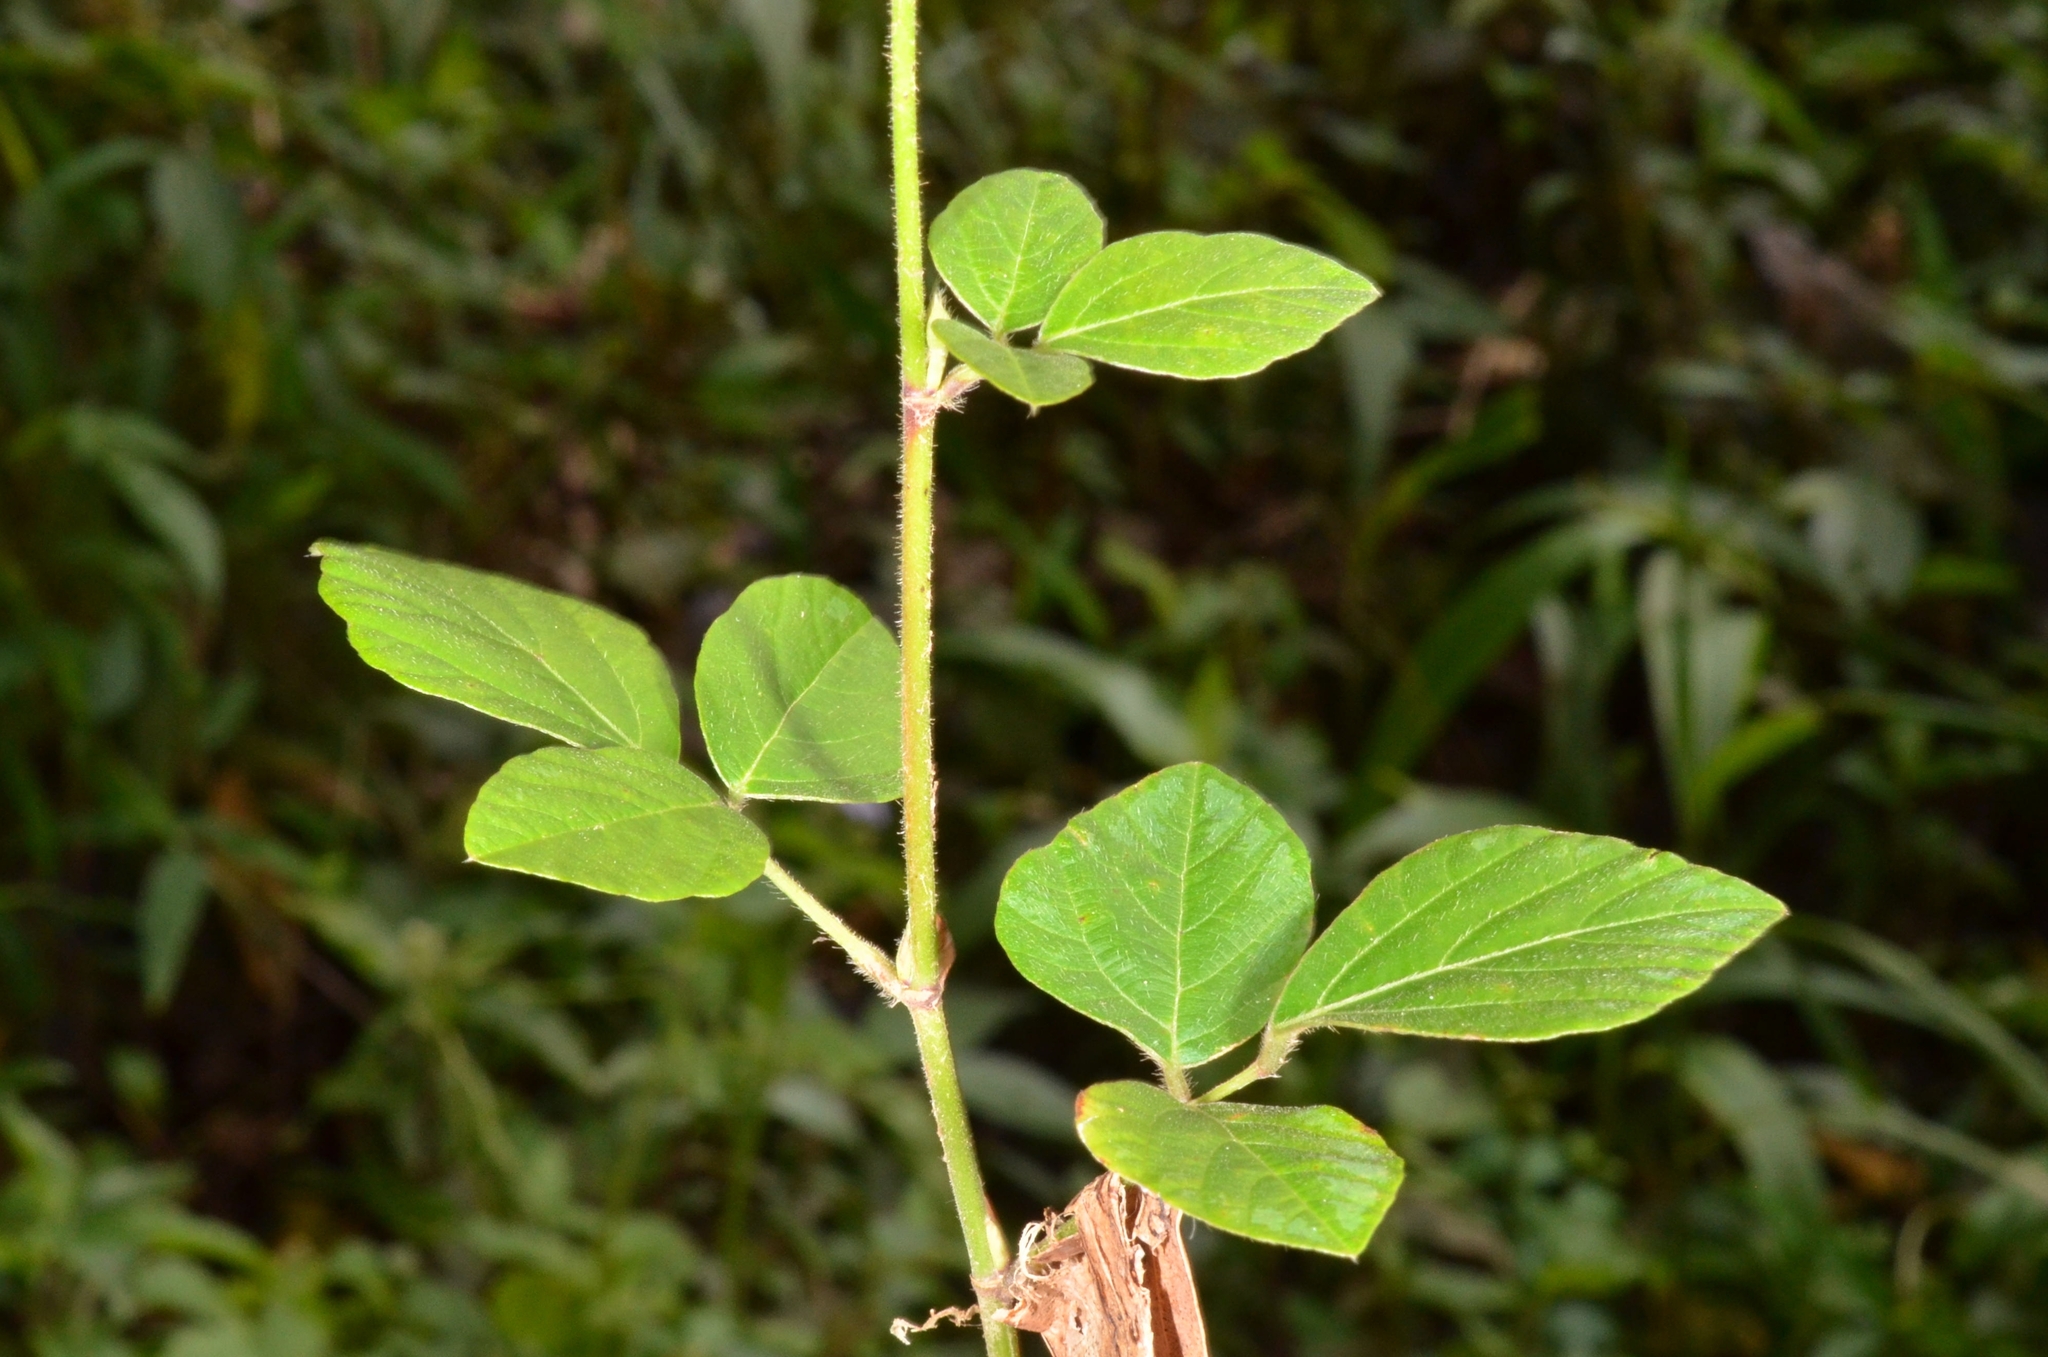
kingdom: Plantae
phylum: Tracheophyta
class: Magnoliopsida
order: Fabales
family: Fabaceae
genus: Hylodesmum
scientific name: Hylodesmum repandum
